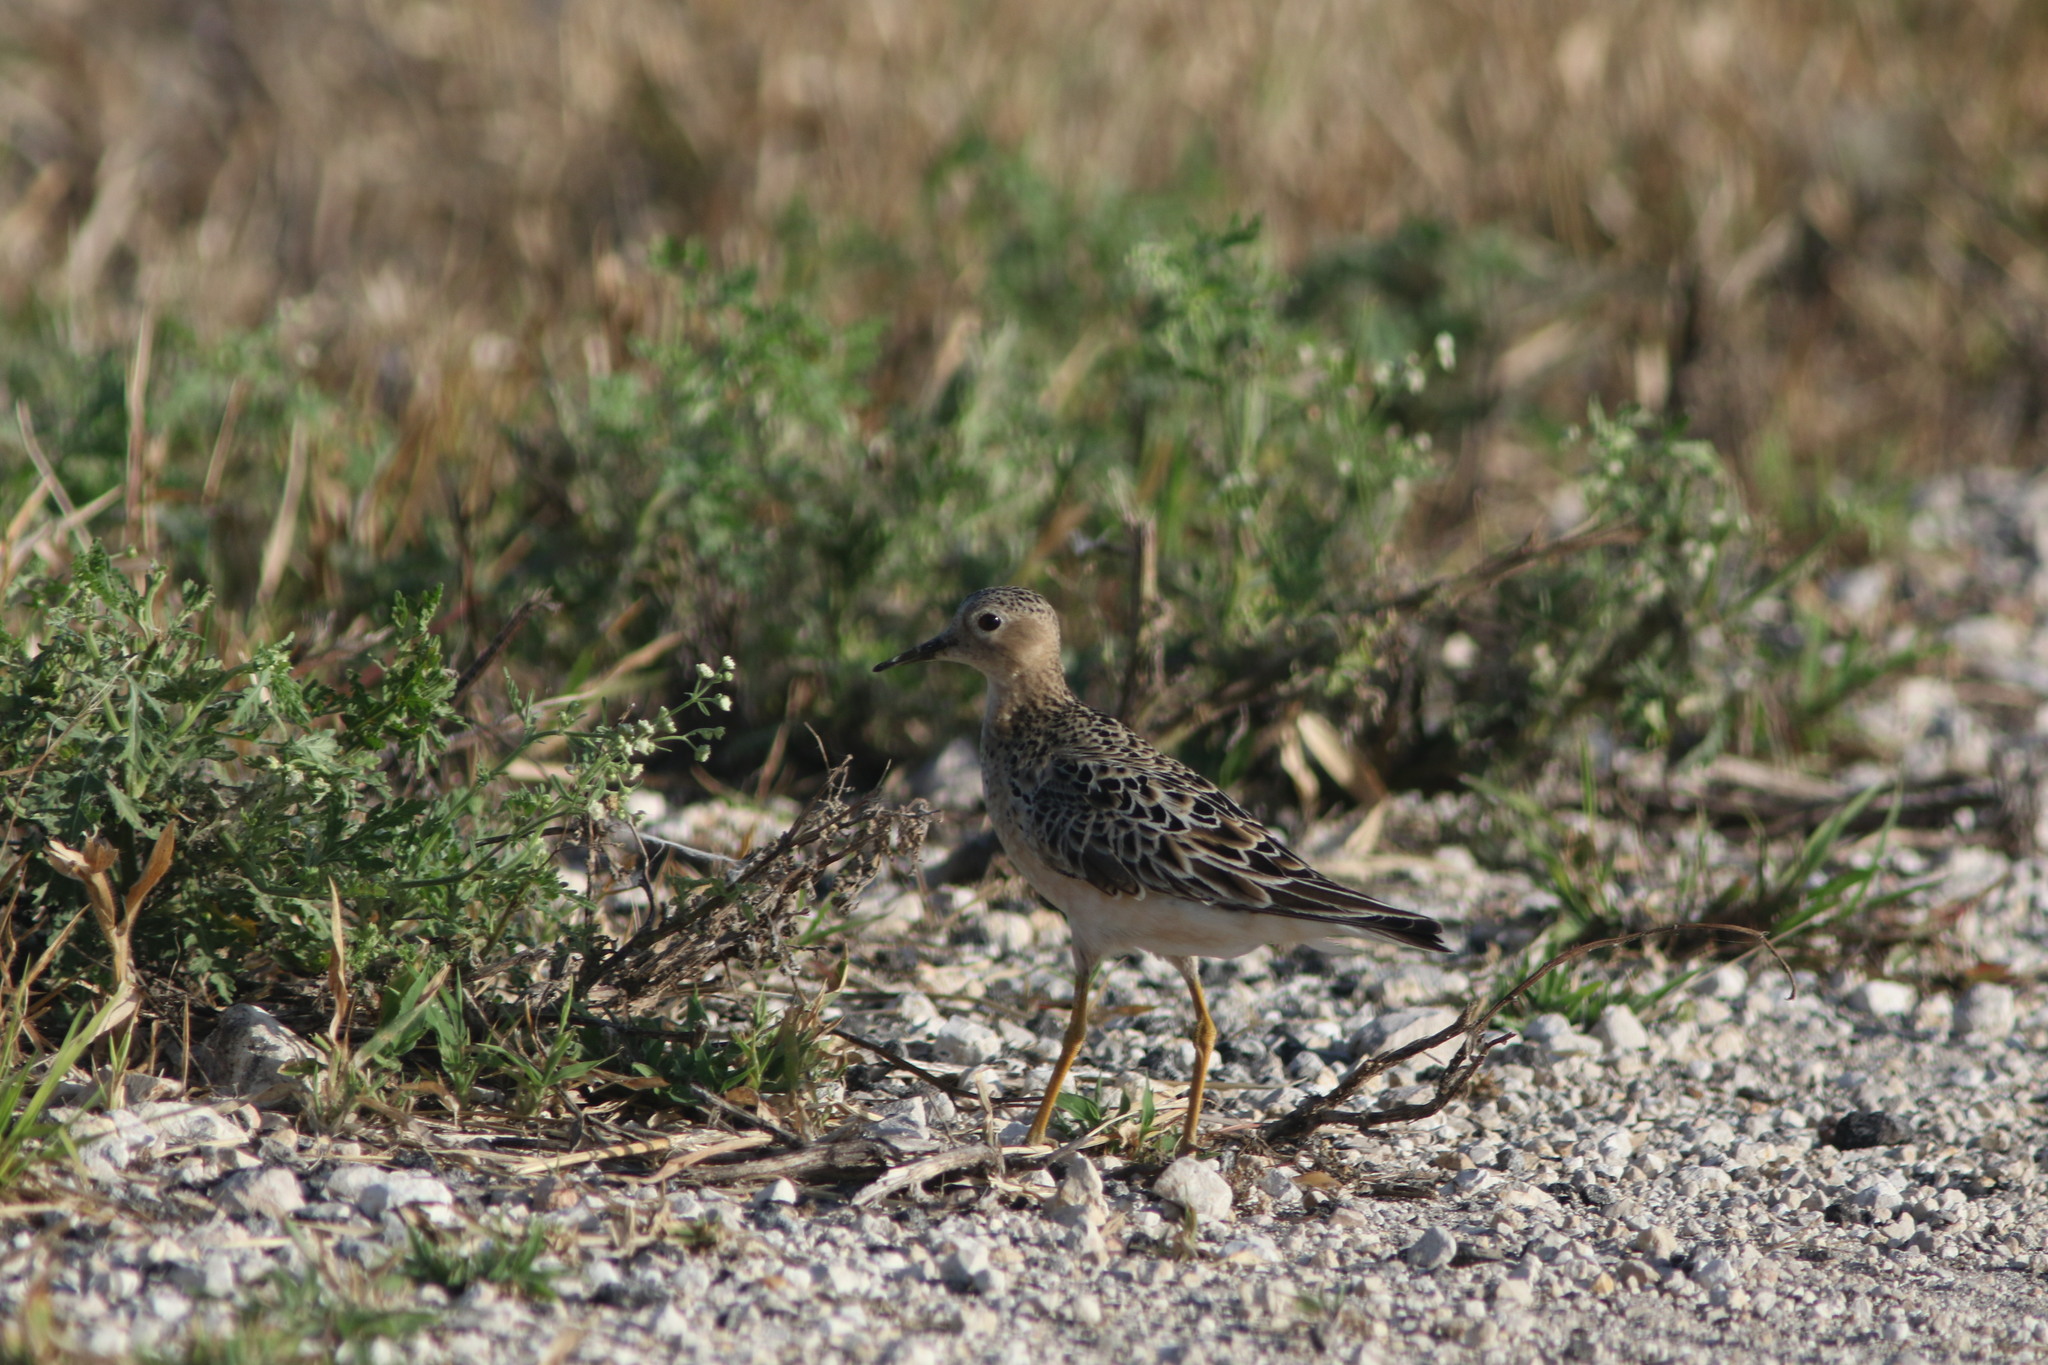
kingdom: Animalia
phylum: Chordata
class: Aves
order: Charadriiformes
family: Scolopacidae
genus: Calidris
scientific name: Calidris subruficollis
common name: Buff-breasted sandpiper
